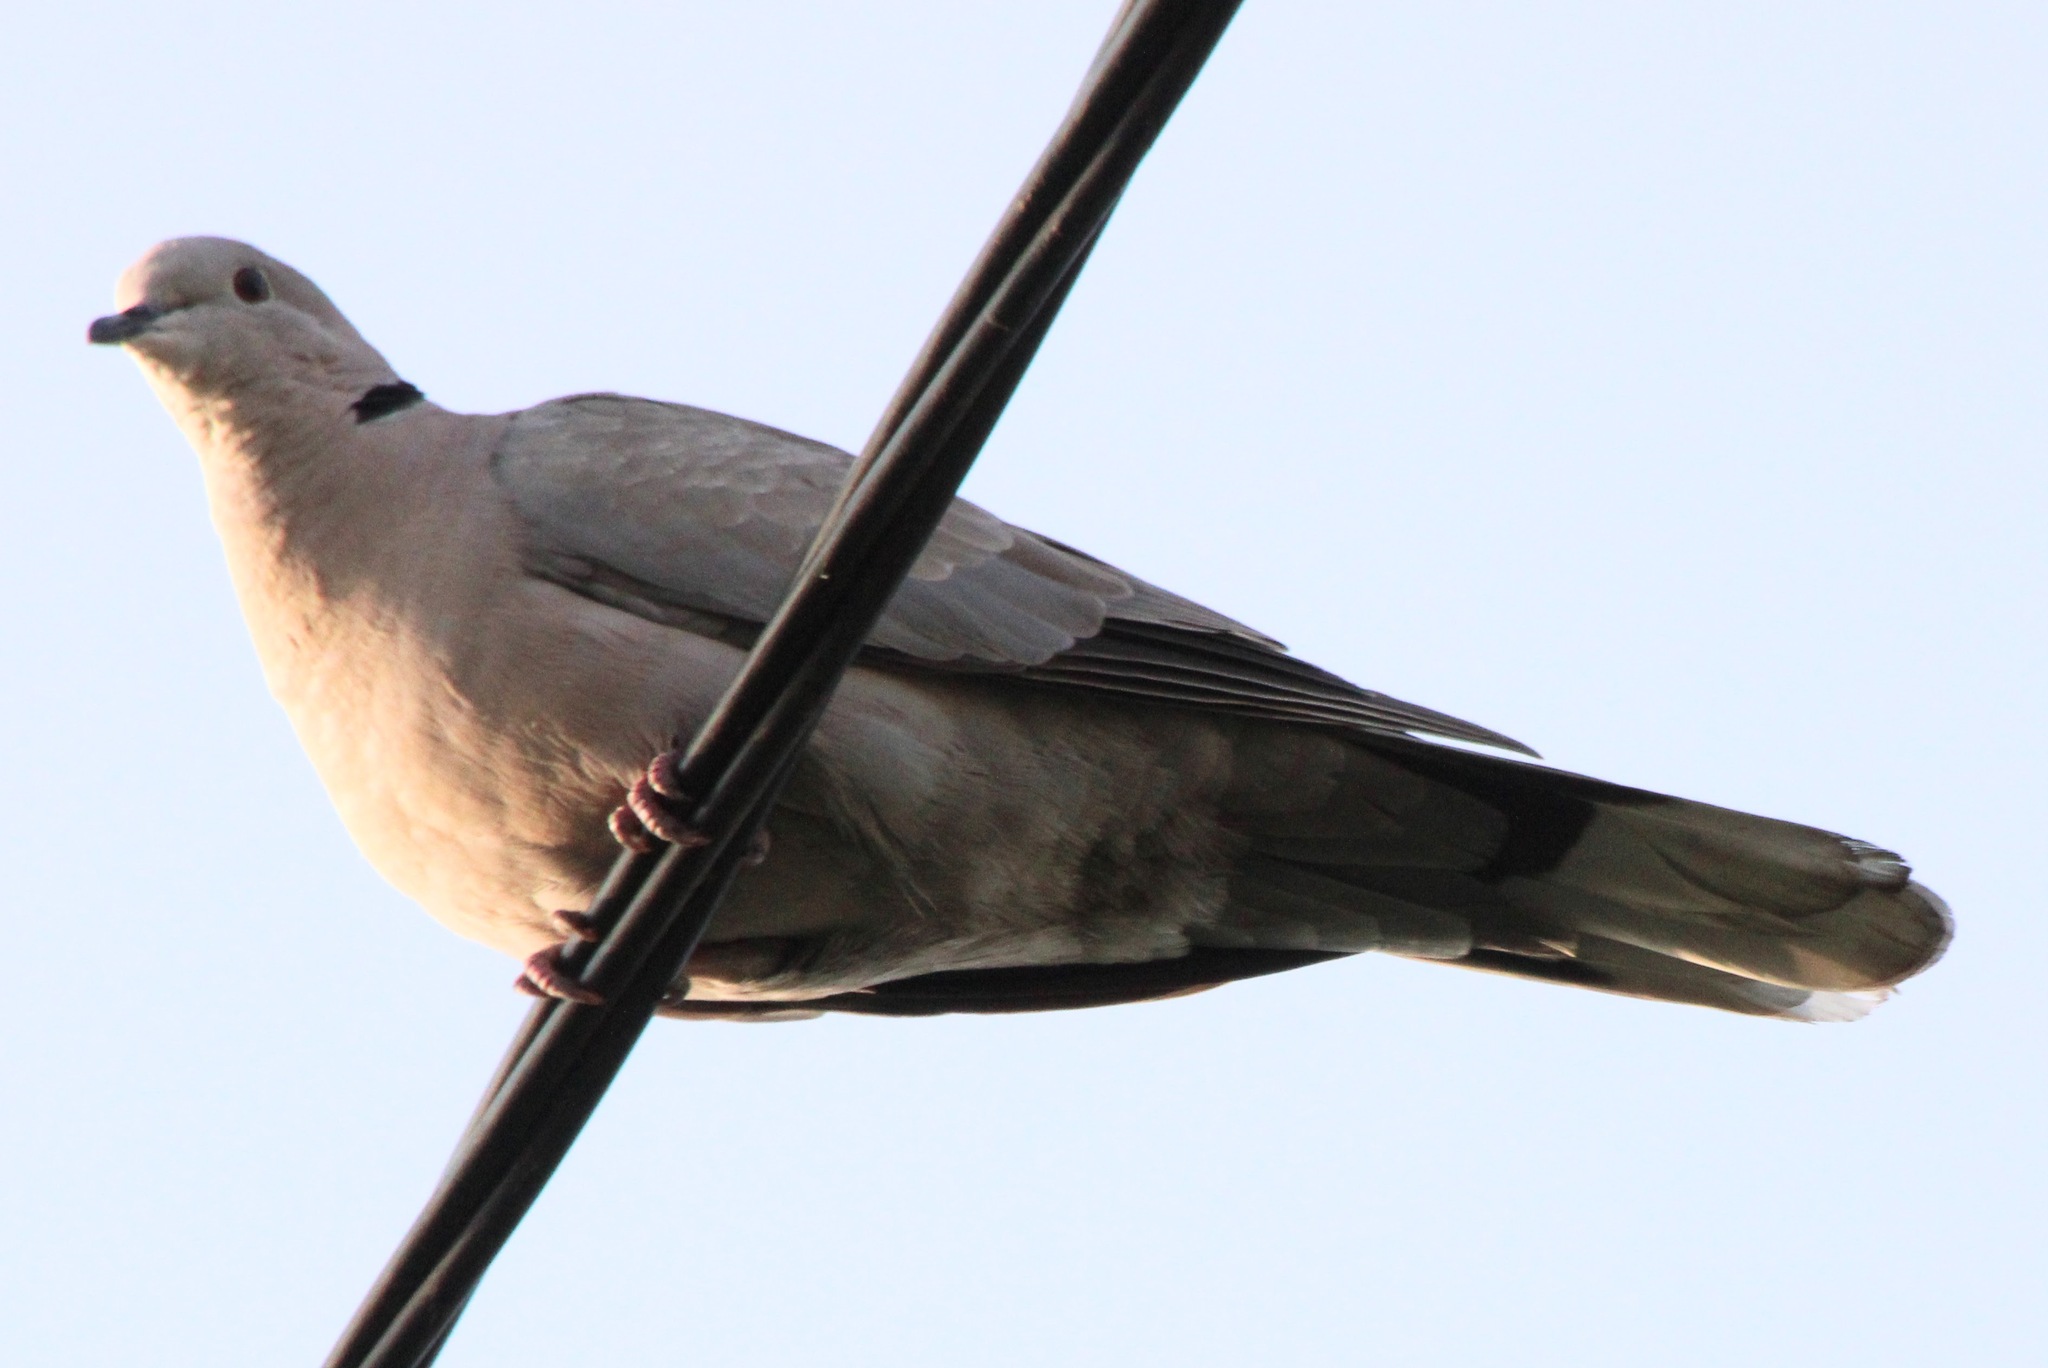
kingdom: Animalia
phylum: Chordata
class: Aves
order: Columbiformes
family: Columbidae
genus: Streptopelia
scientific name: Streptopelia decaocto
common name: Eurasian collared dove
